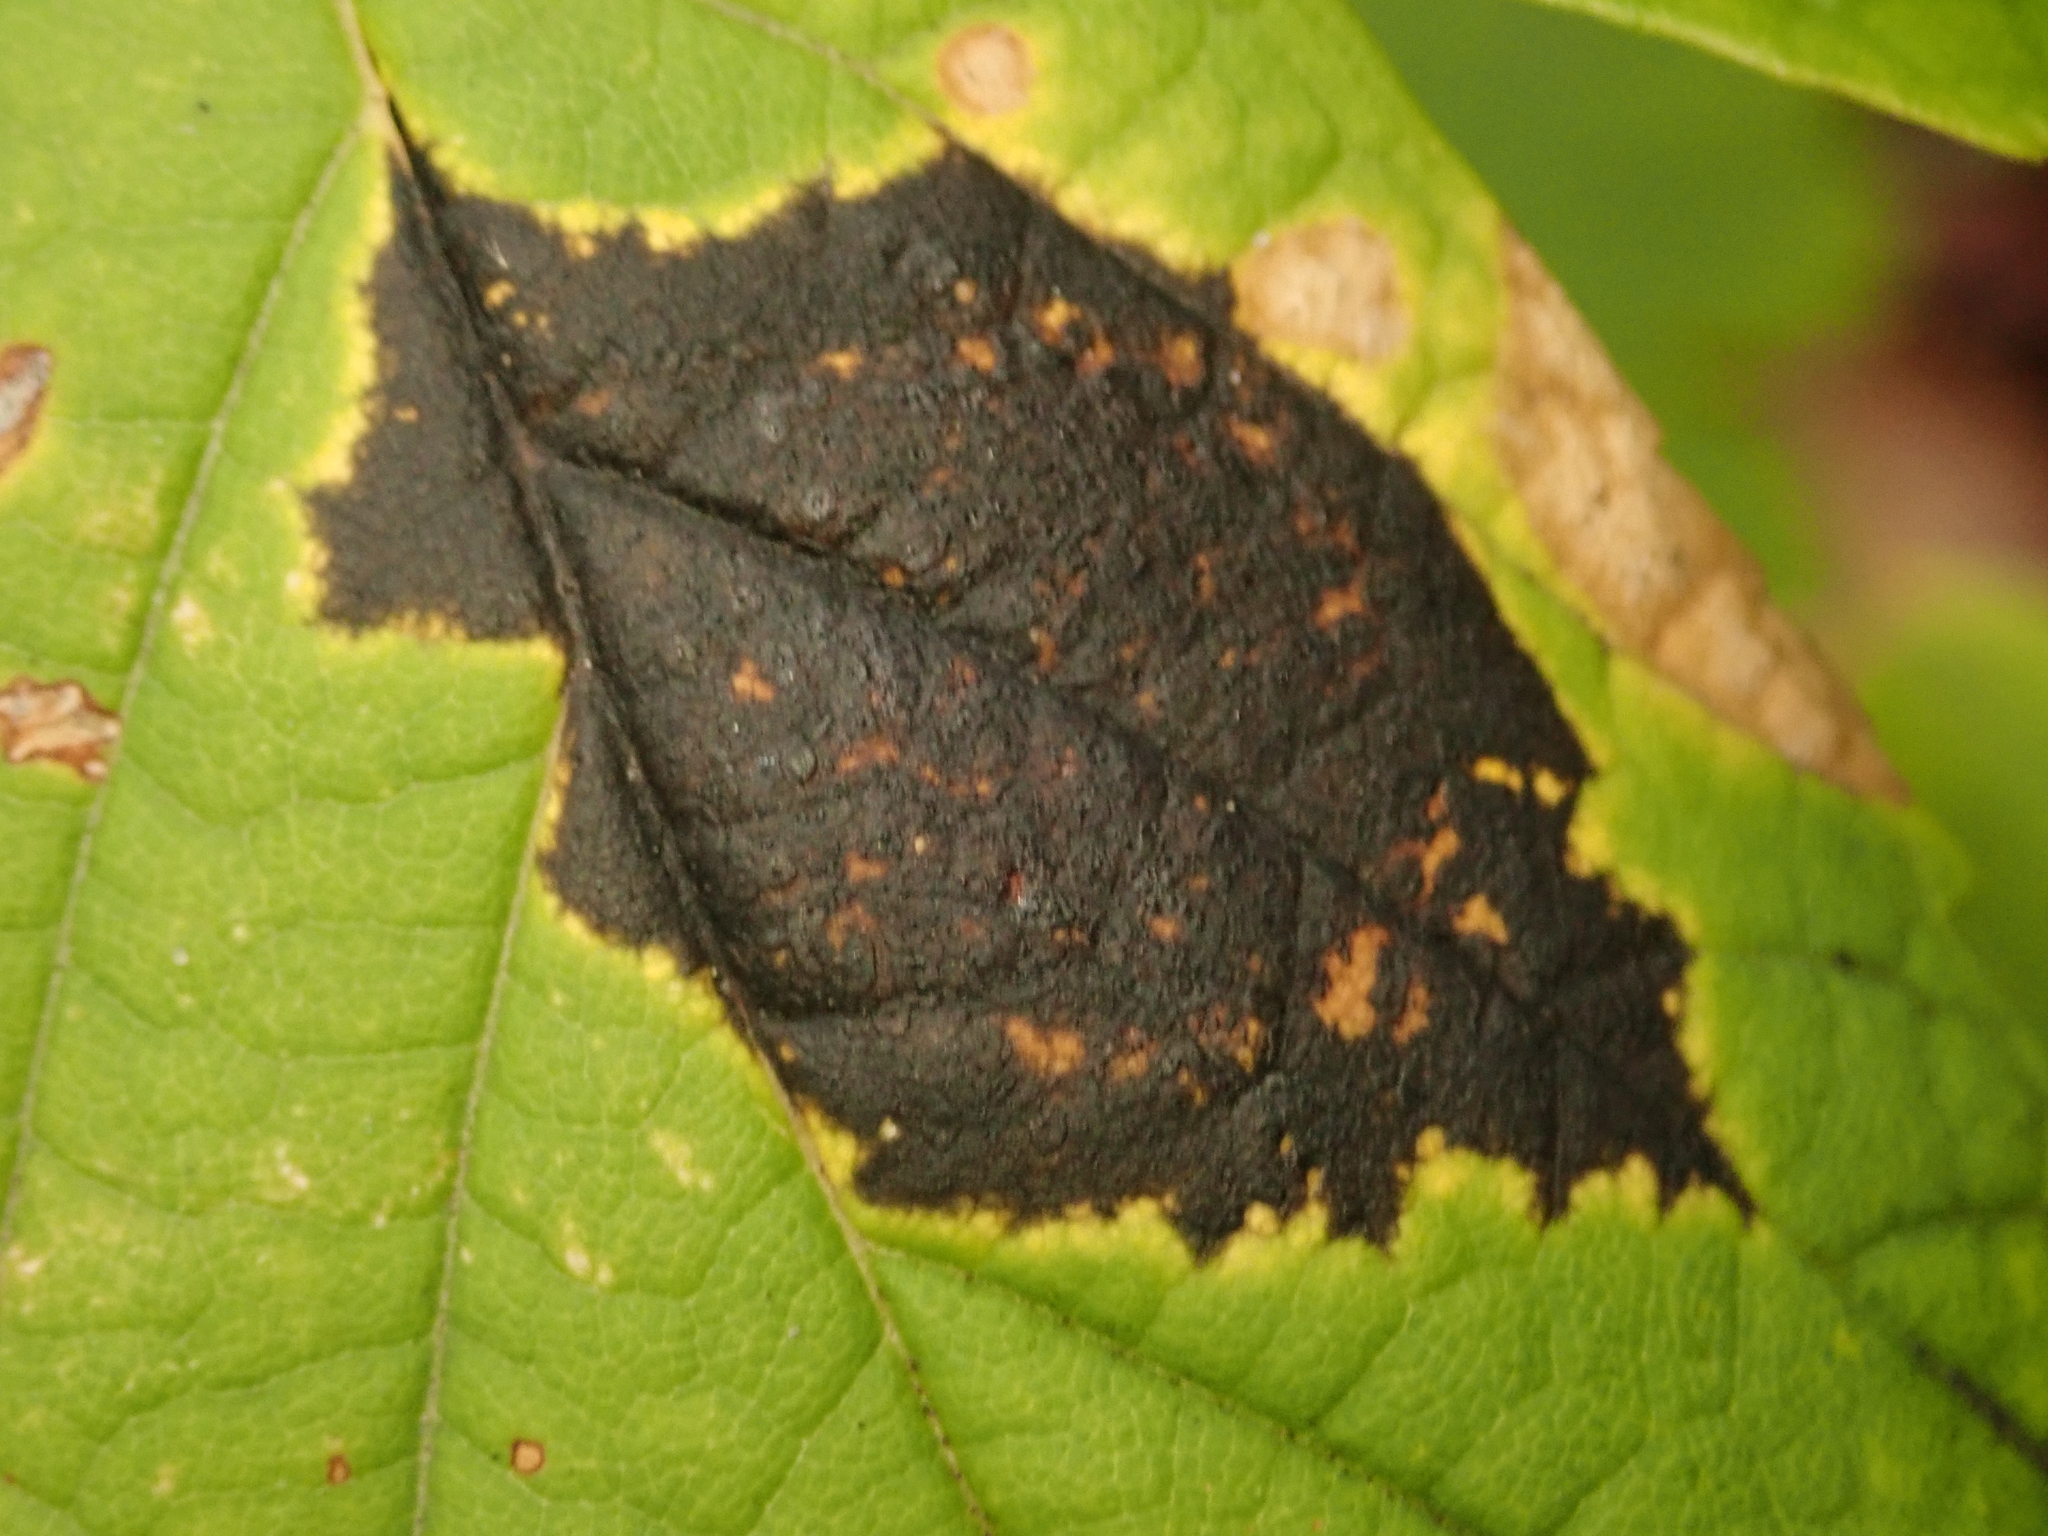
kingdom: Fungi
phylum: Ascomycota
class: Leotiomycetes
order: Rhytismatales
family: Rhytismataceae
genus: Rhytisma
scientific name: Rhytisma acerinum
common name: European tar spot
